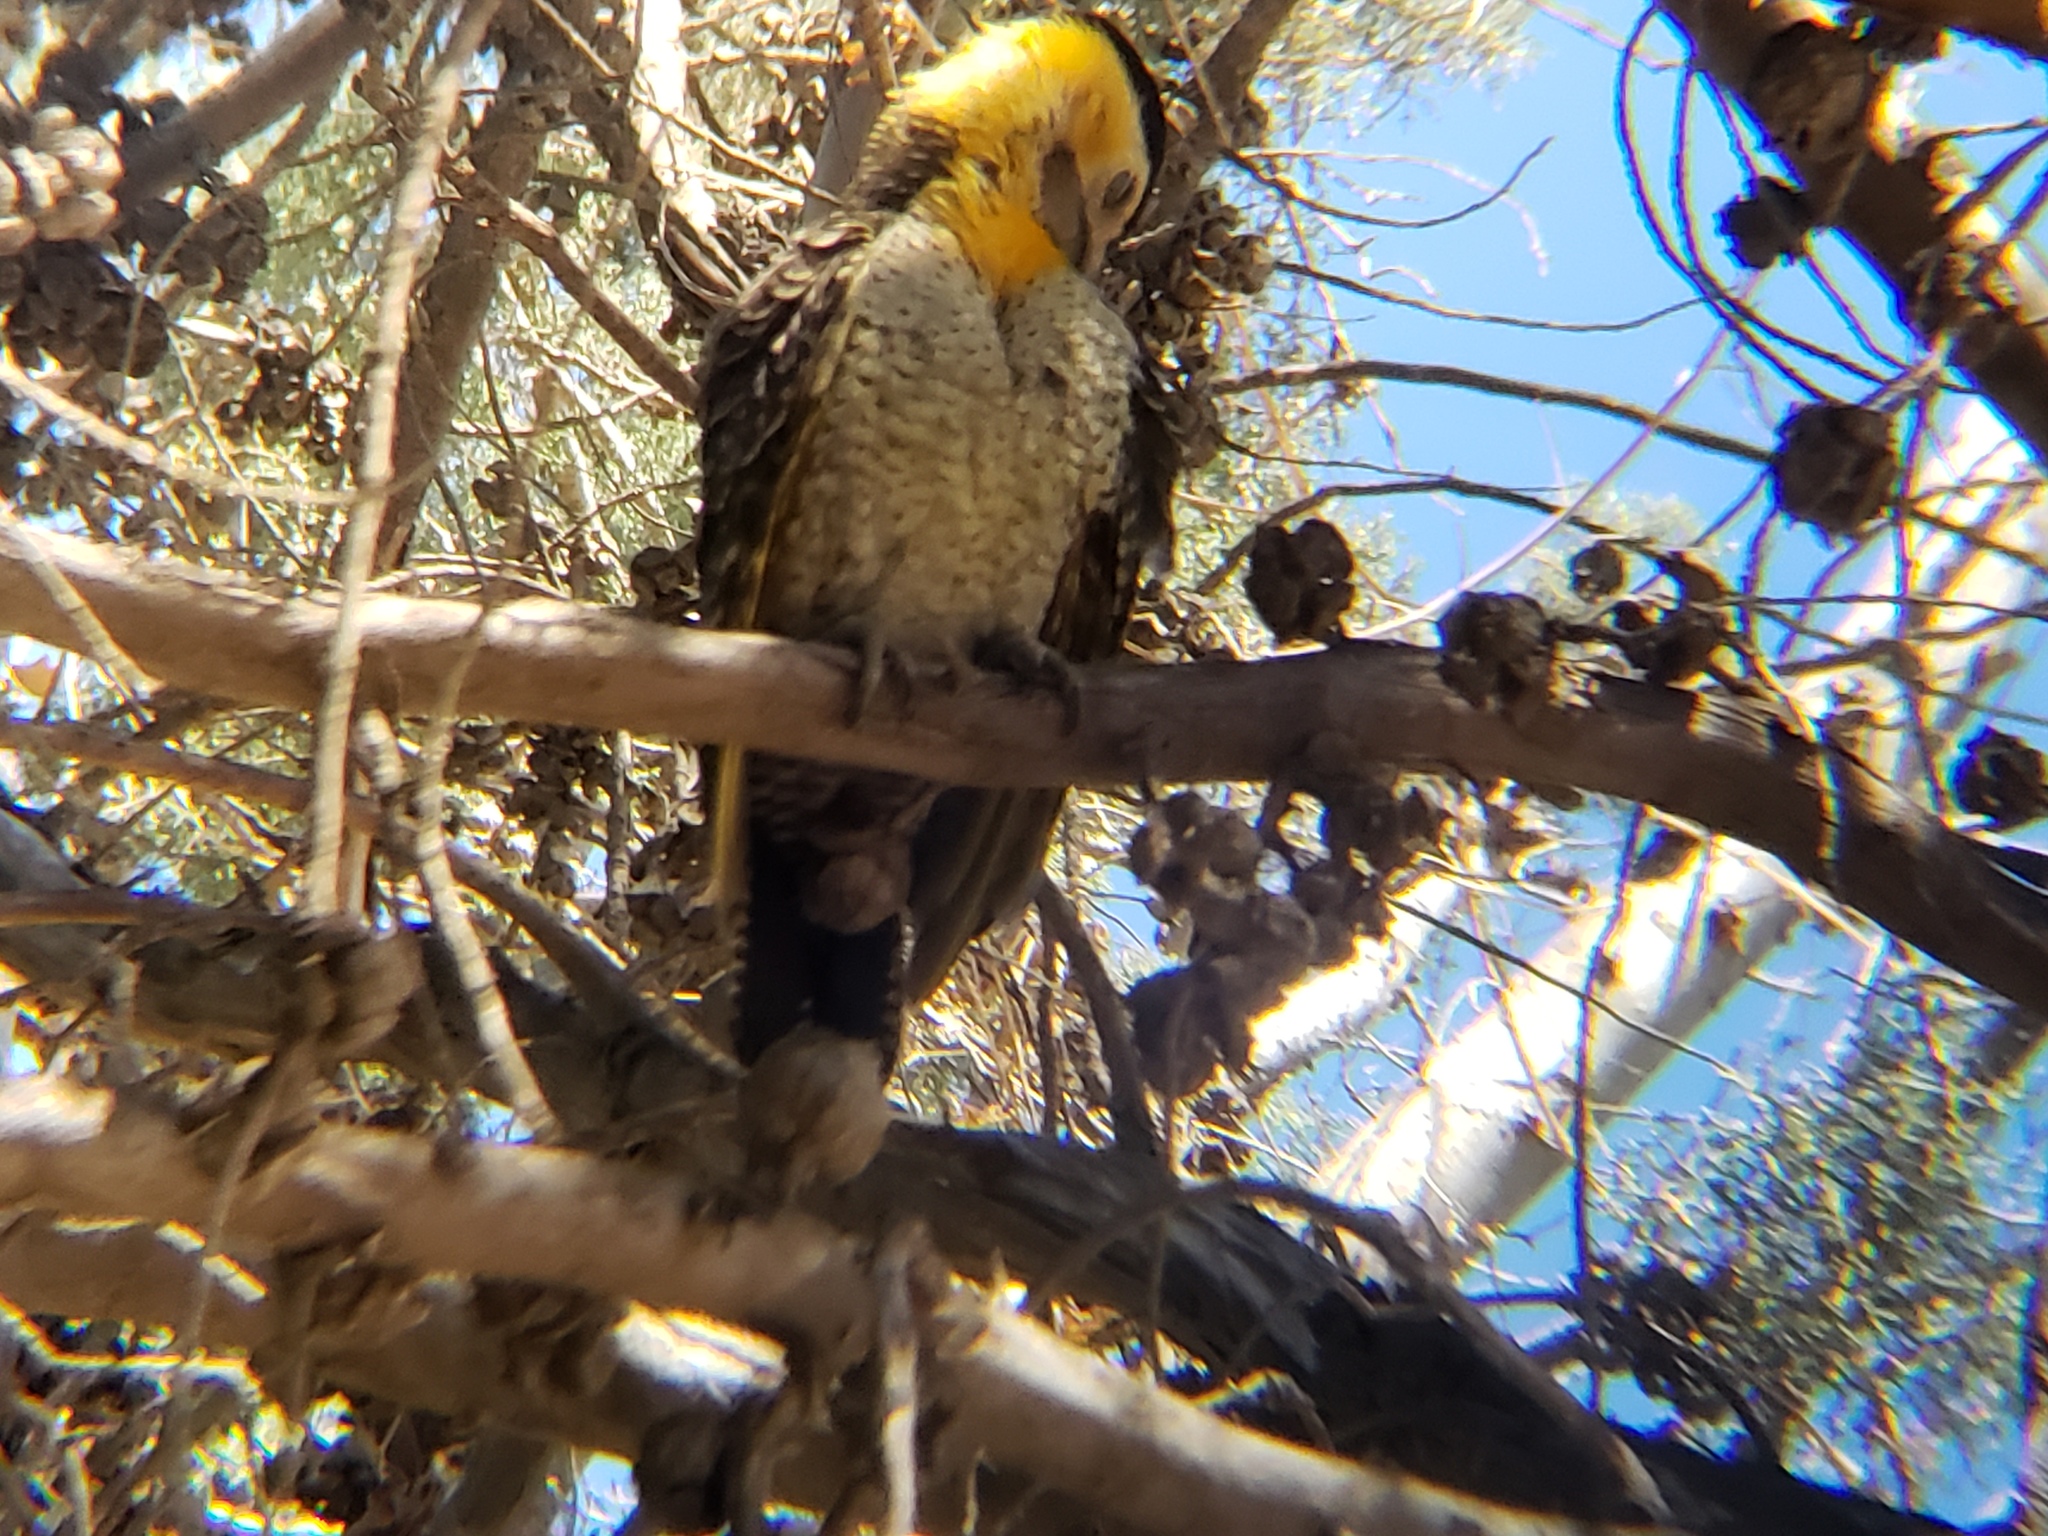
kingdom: Animalia
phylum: Chordata
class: Aves
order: Piciformes
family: Picidae
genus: Colaptes
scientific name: Colaptes campestris
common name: Campo flicker
